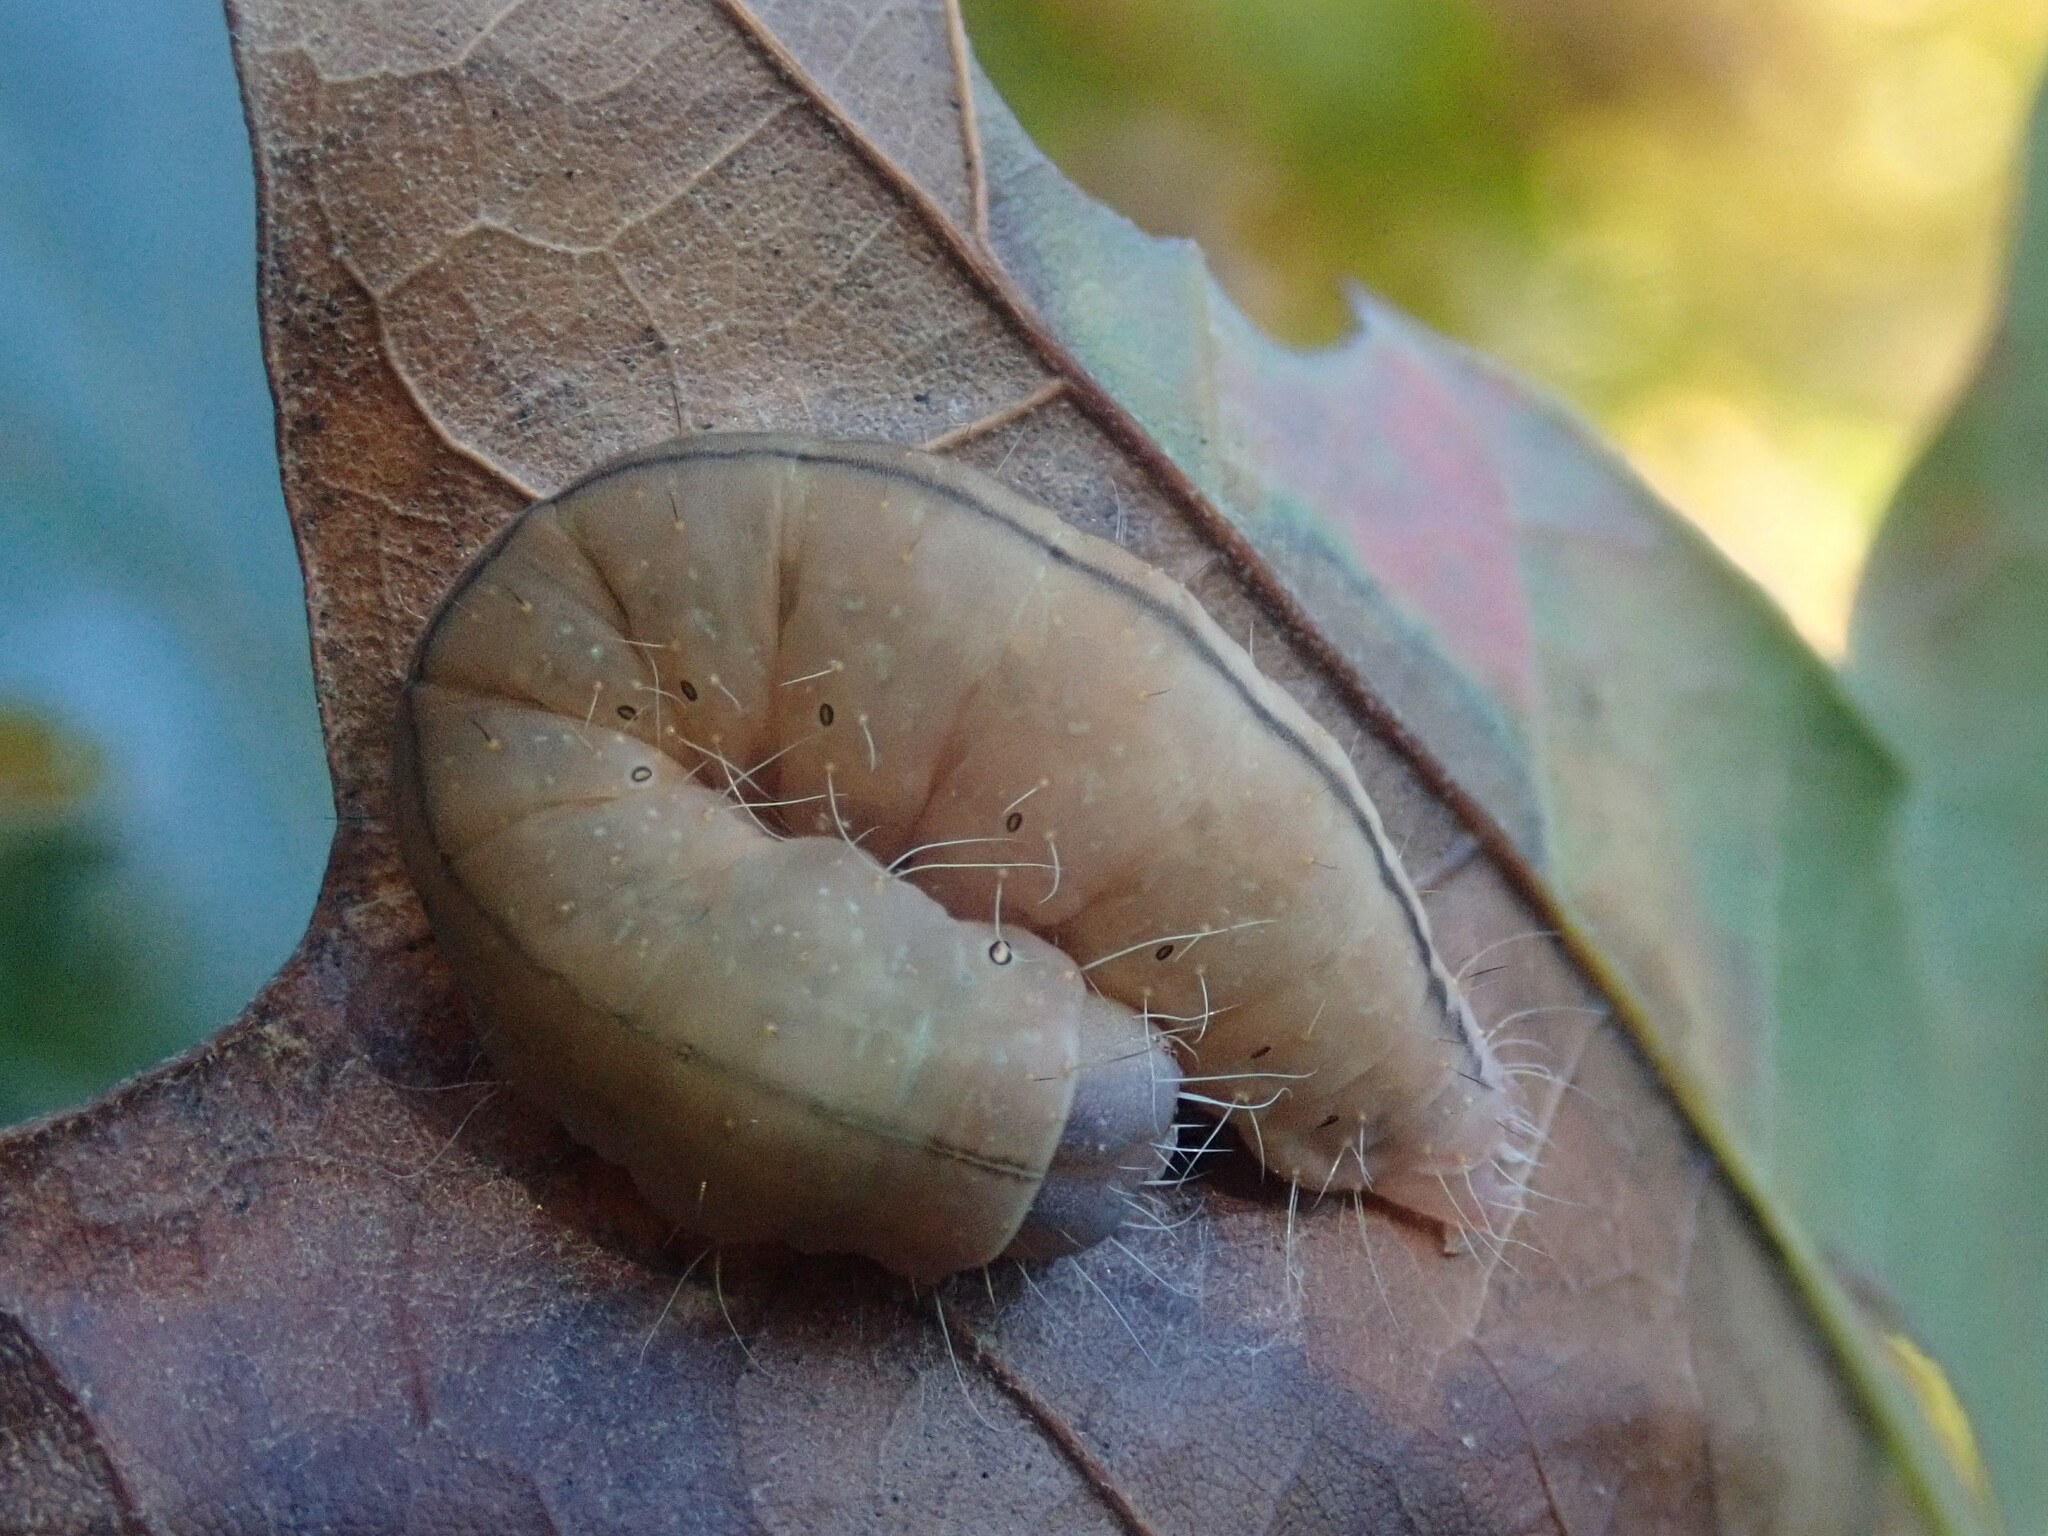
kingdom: Animalia
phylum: Arthropoda
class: Insecta
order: Lepidoptera
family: Noctuidae
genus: Acronicta
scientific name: Acronicta afflicta
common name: Afflicted dagger moth
